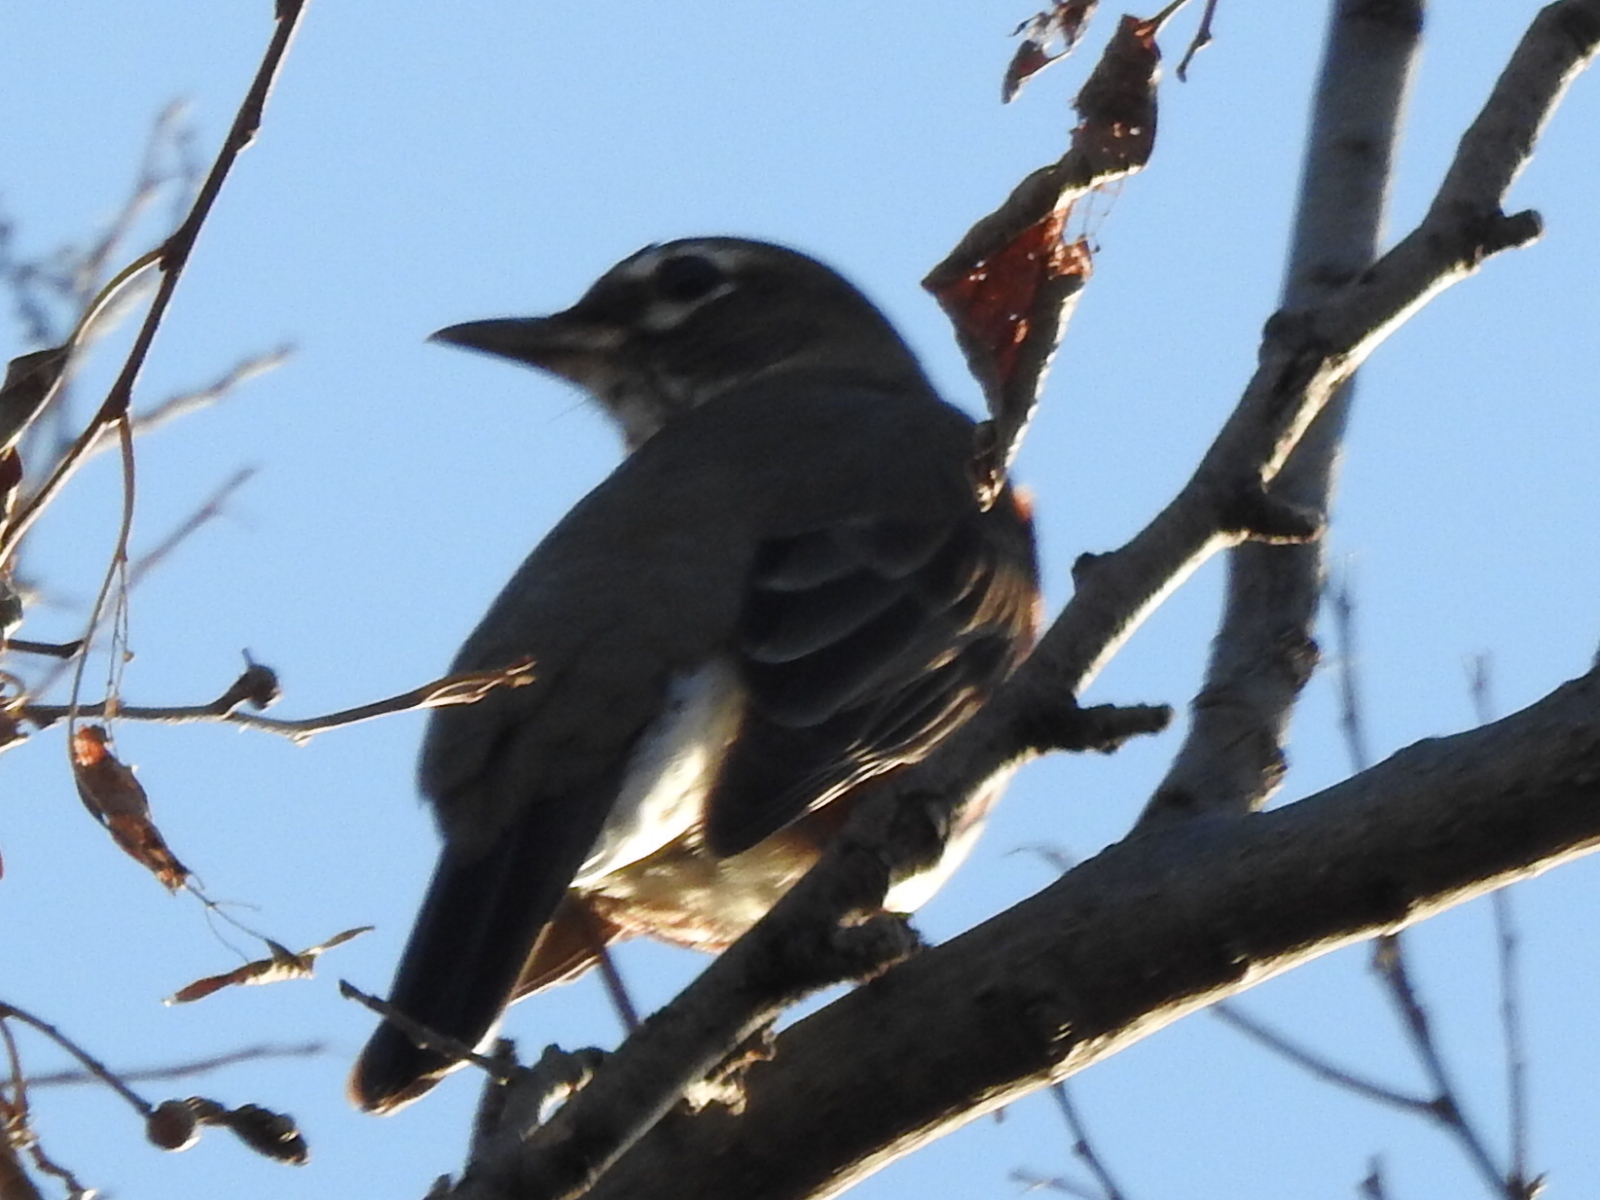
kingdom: Animalia
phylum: Chordata
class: Aves
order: Passeriformes
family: Turdidae
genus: Turdus
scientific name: Turdus migratorius
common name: American robin
